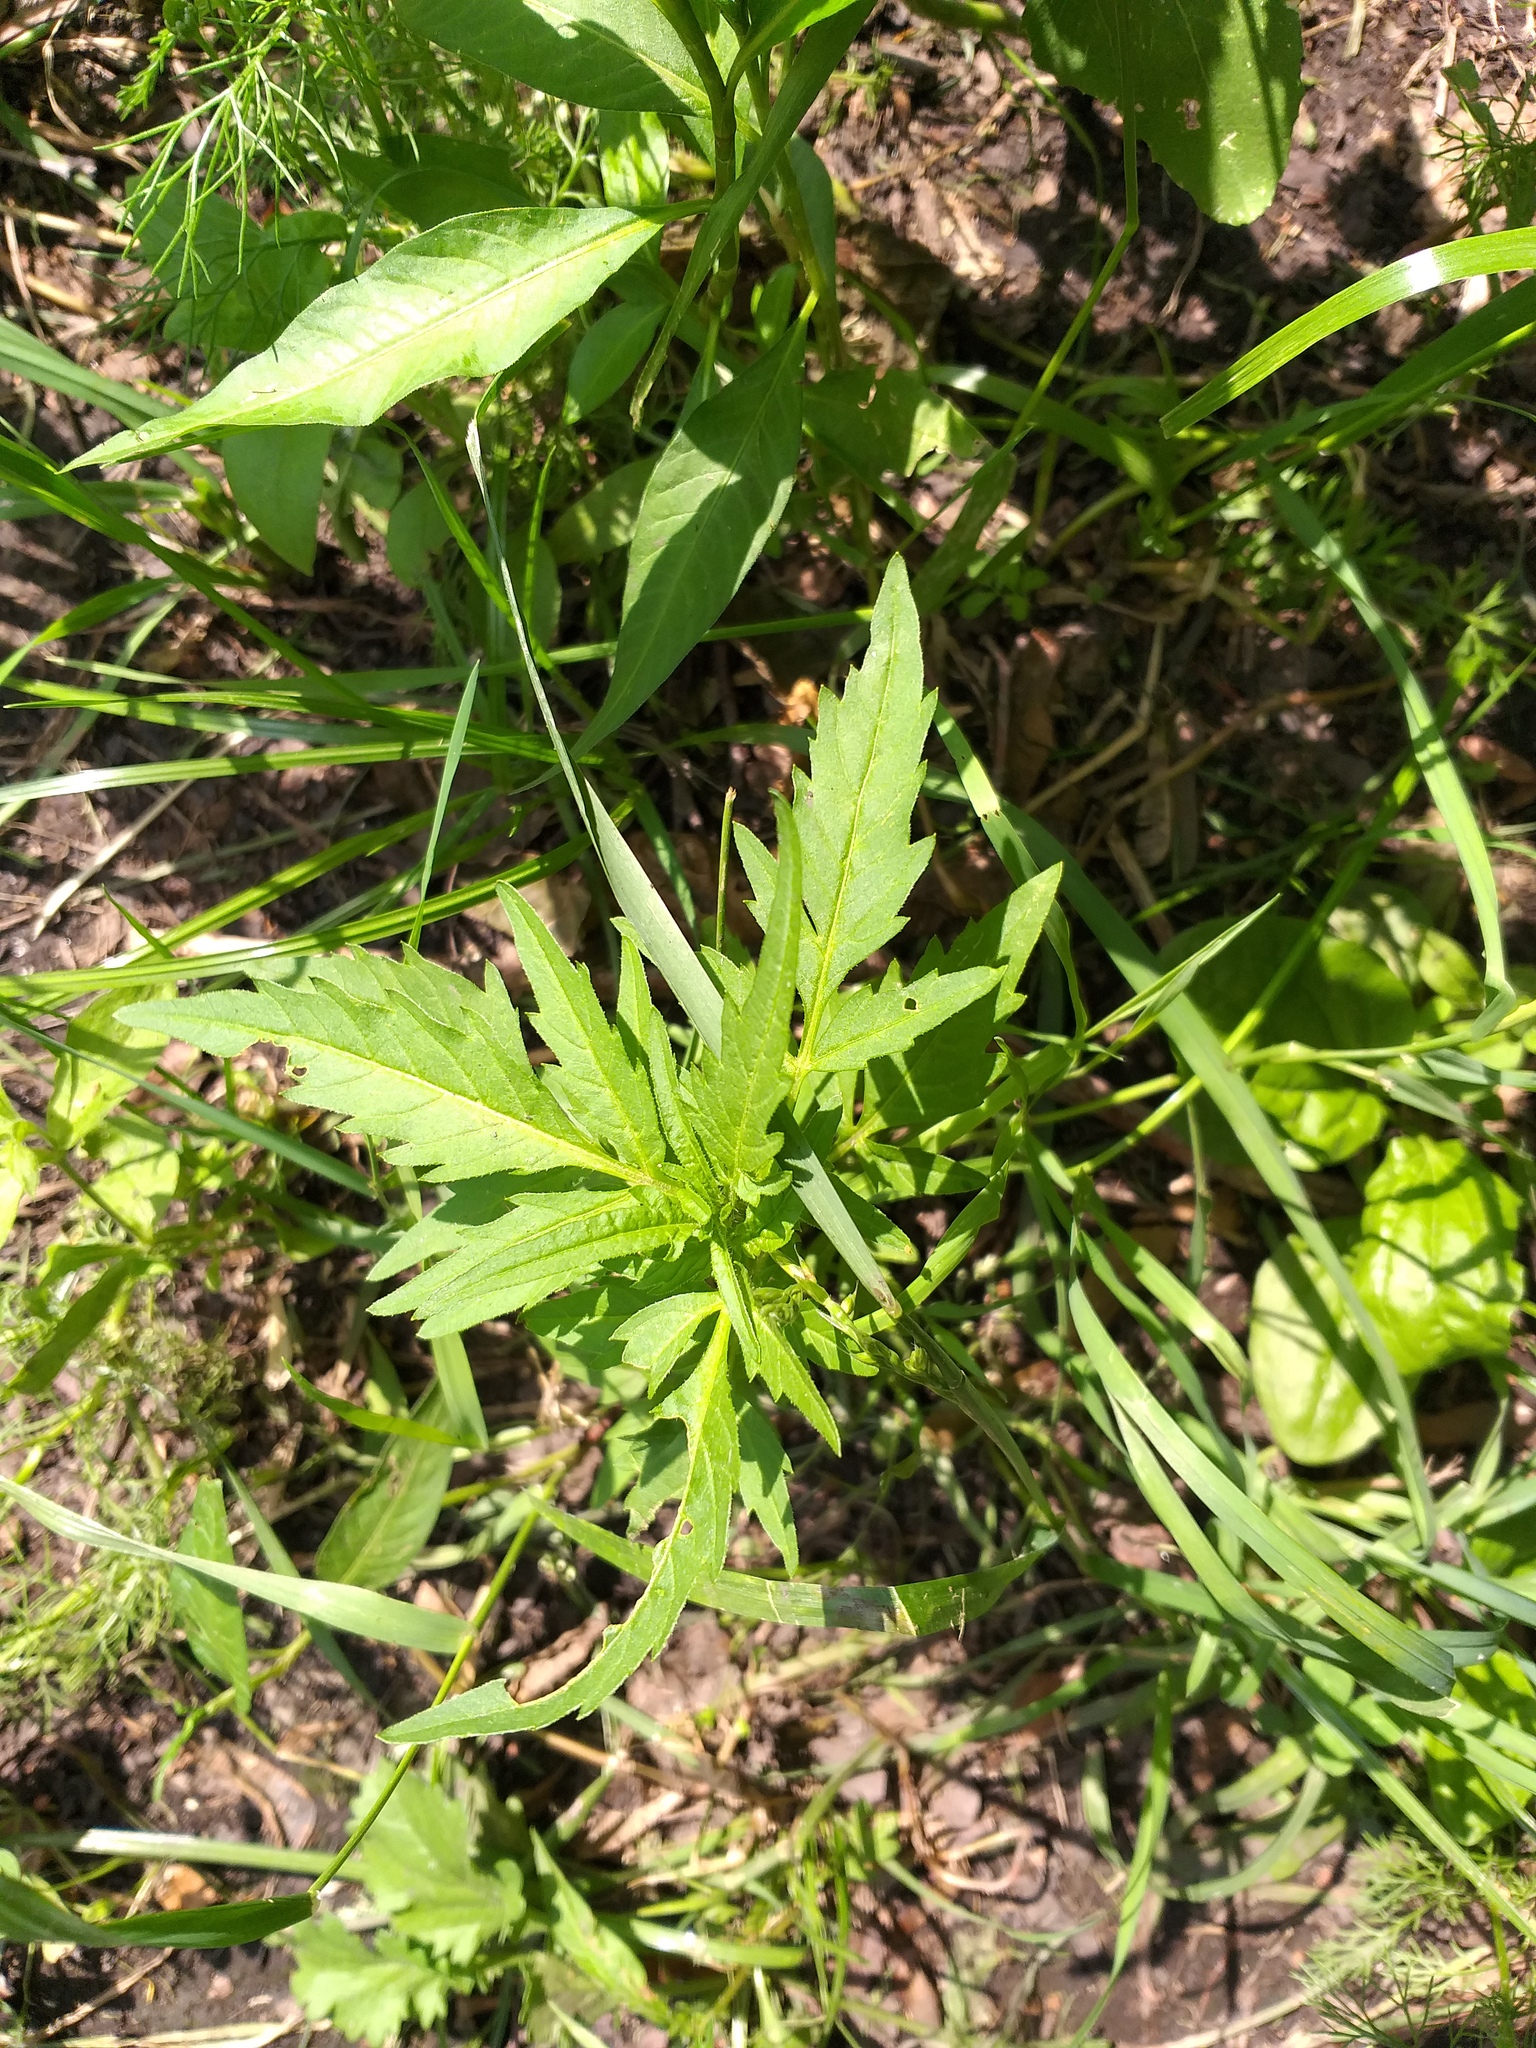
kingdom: Plantae
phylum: Tracheophyta
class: Magnoliopsida
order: Asterales
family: Asteraceae
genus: Bidens
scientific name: Bidens tripartita
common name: Trifid bur-marigold
